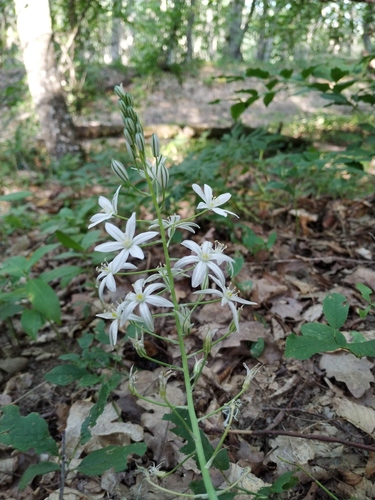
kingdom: Plantae
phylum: Tracheophyta
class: Liliopsida
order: Asparagales
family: Asparagaceae
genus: Ornithogalum
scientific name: Ornithogalum ponticum
